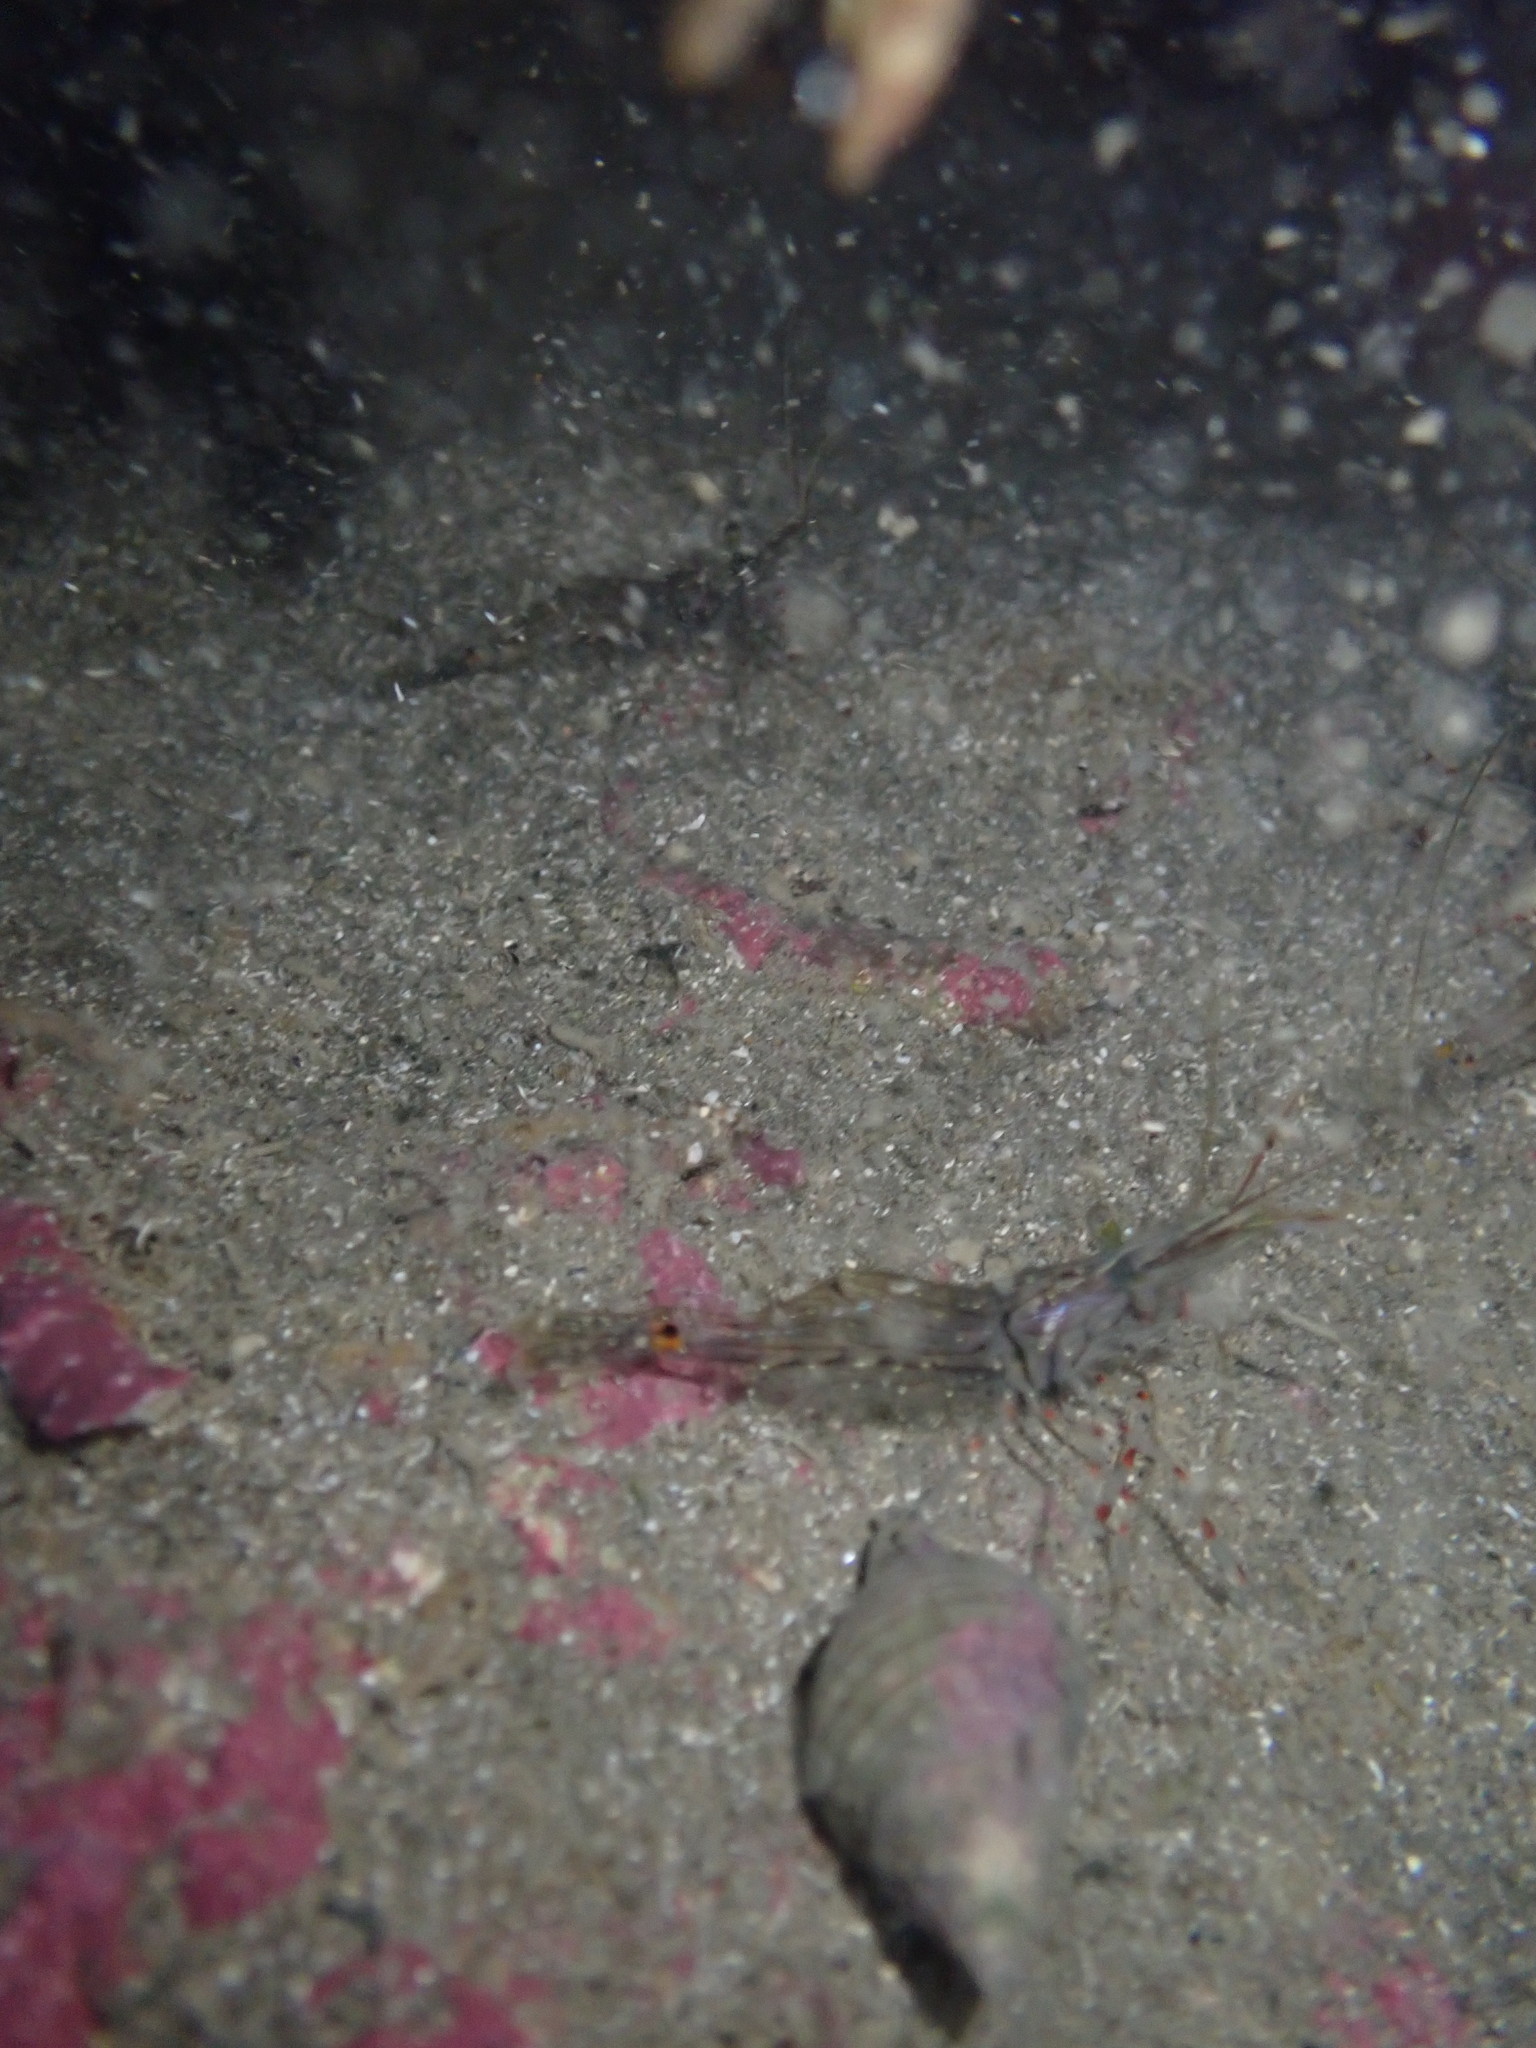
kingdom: Animalia
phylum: Arthropoda
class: Malacostraca
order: Decapoda
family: Palaemonidae
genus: Palaemon
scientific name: Palaemon affinis
